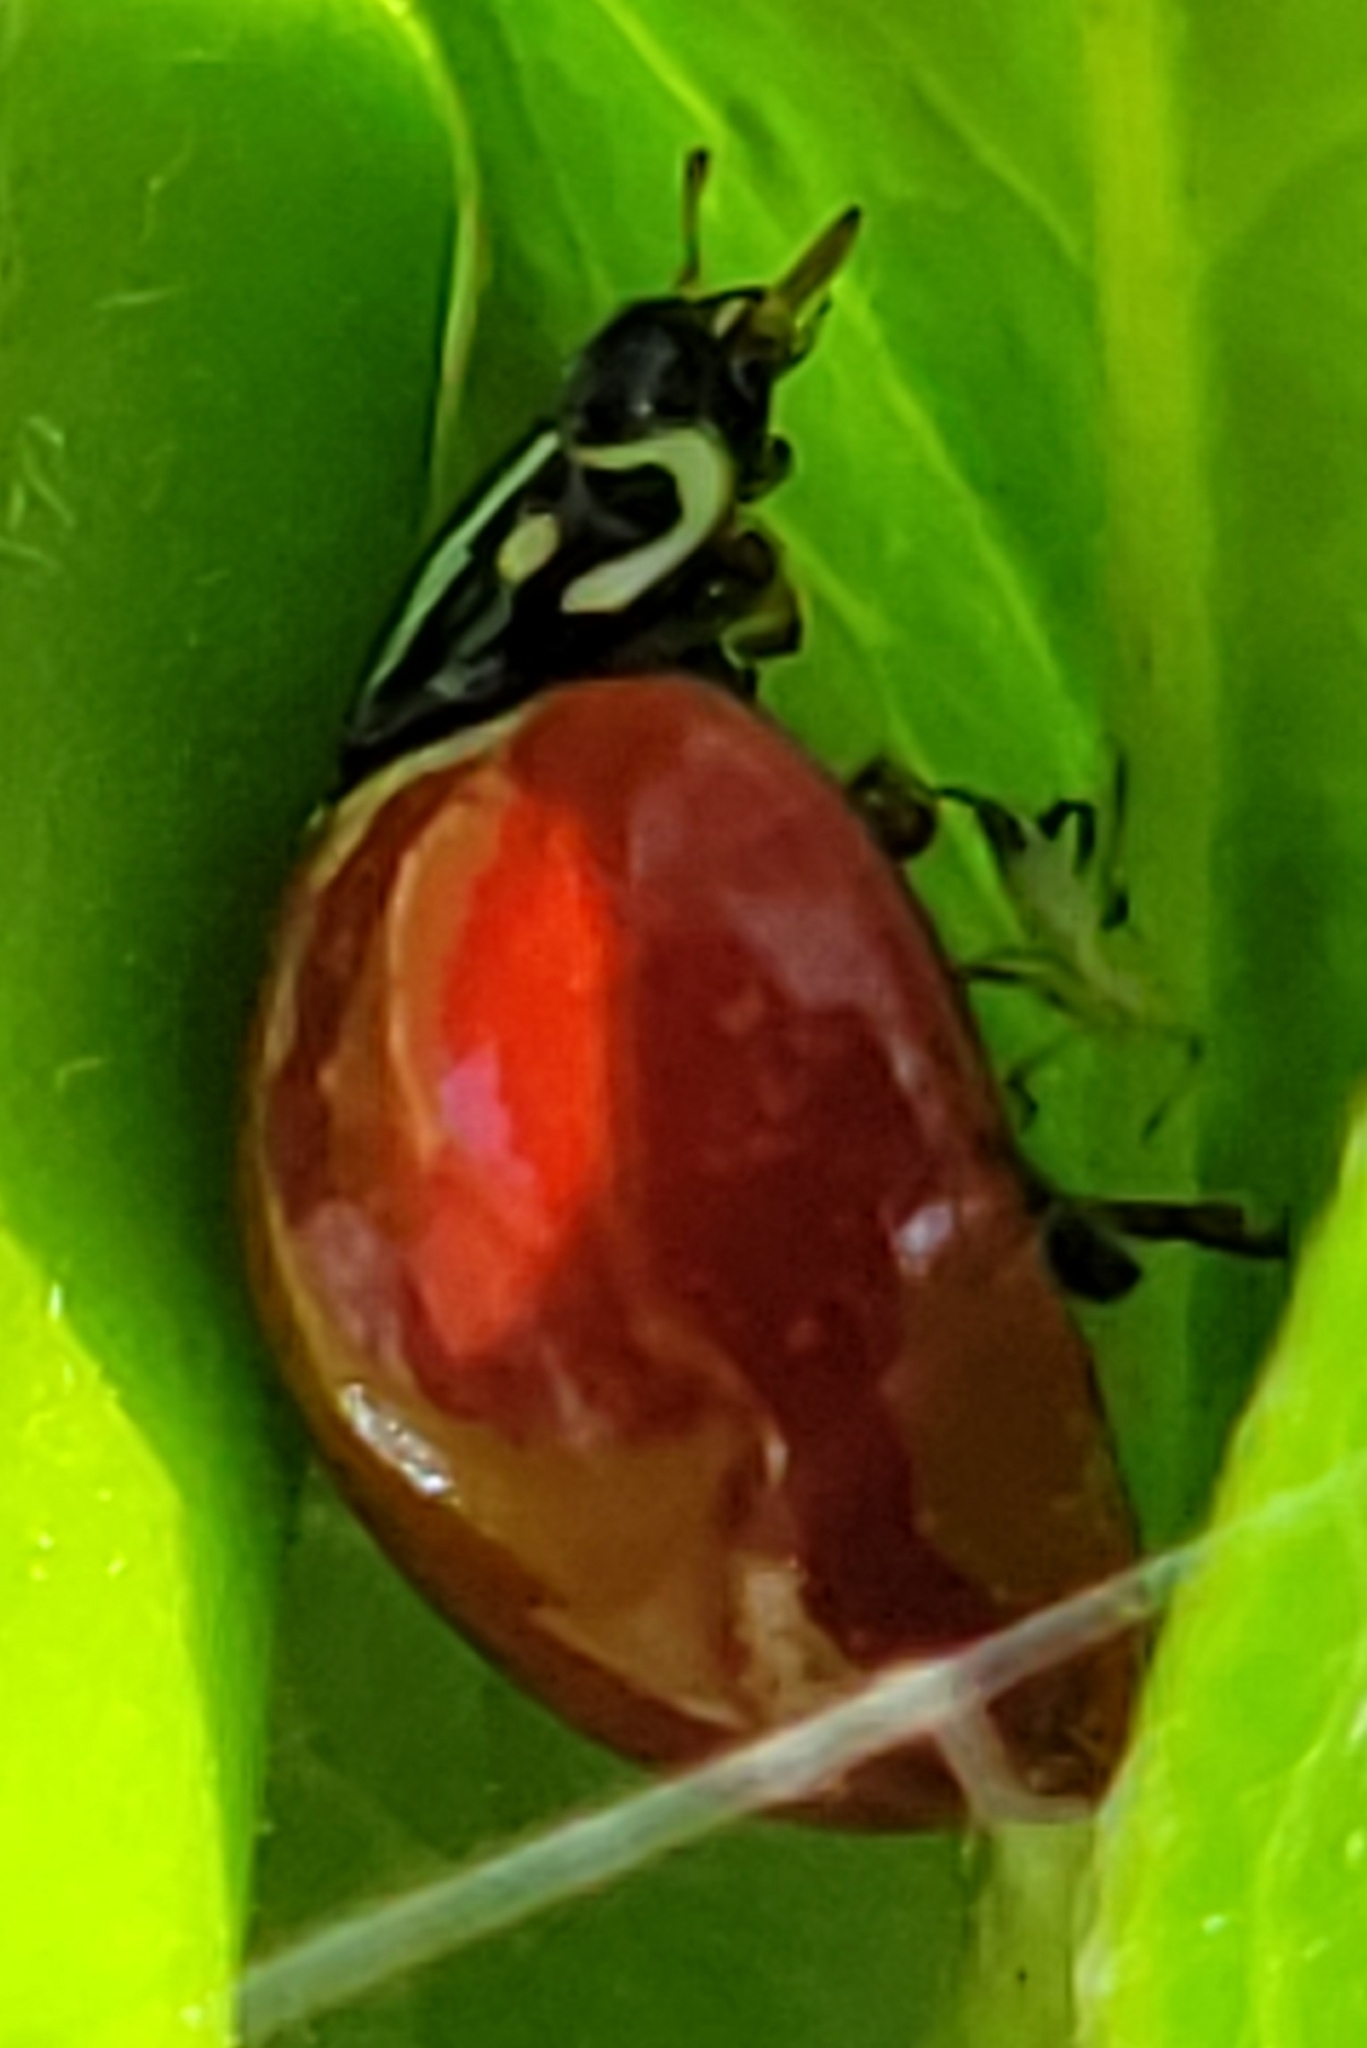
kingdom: Animalia
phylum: Arthropoda
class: Insecta
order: Coleoptera
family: Coccinellidae
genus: Cycloneda
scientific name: Cycloneda sanguinea
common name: Ladybird beetle
